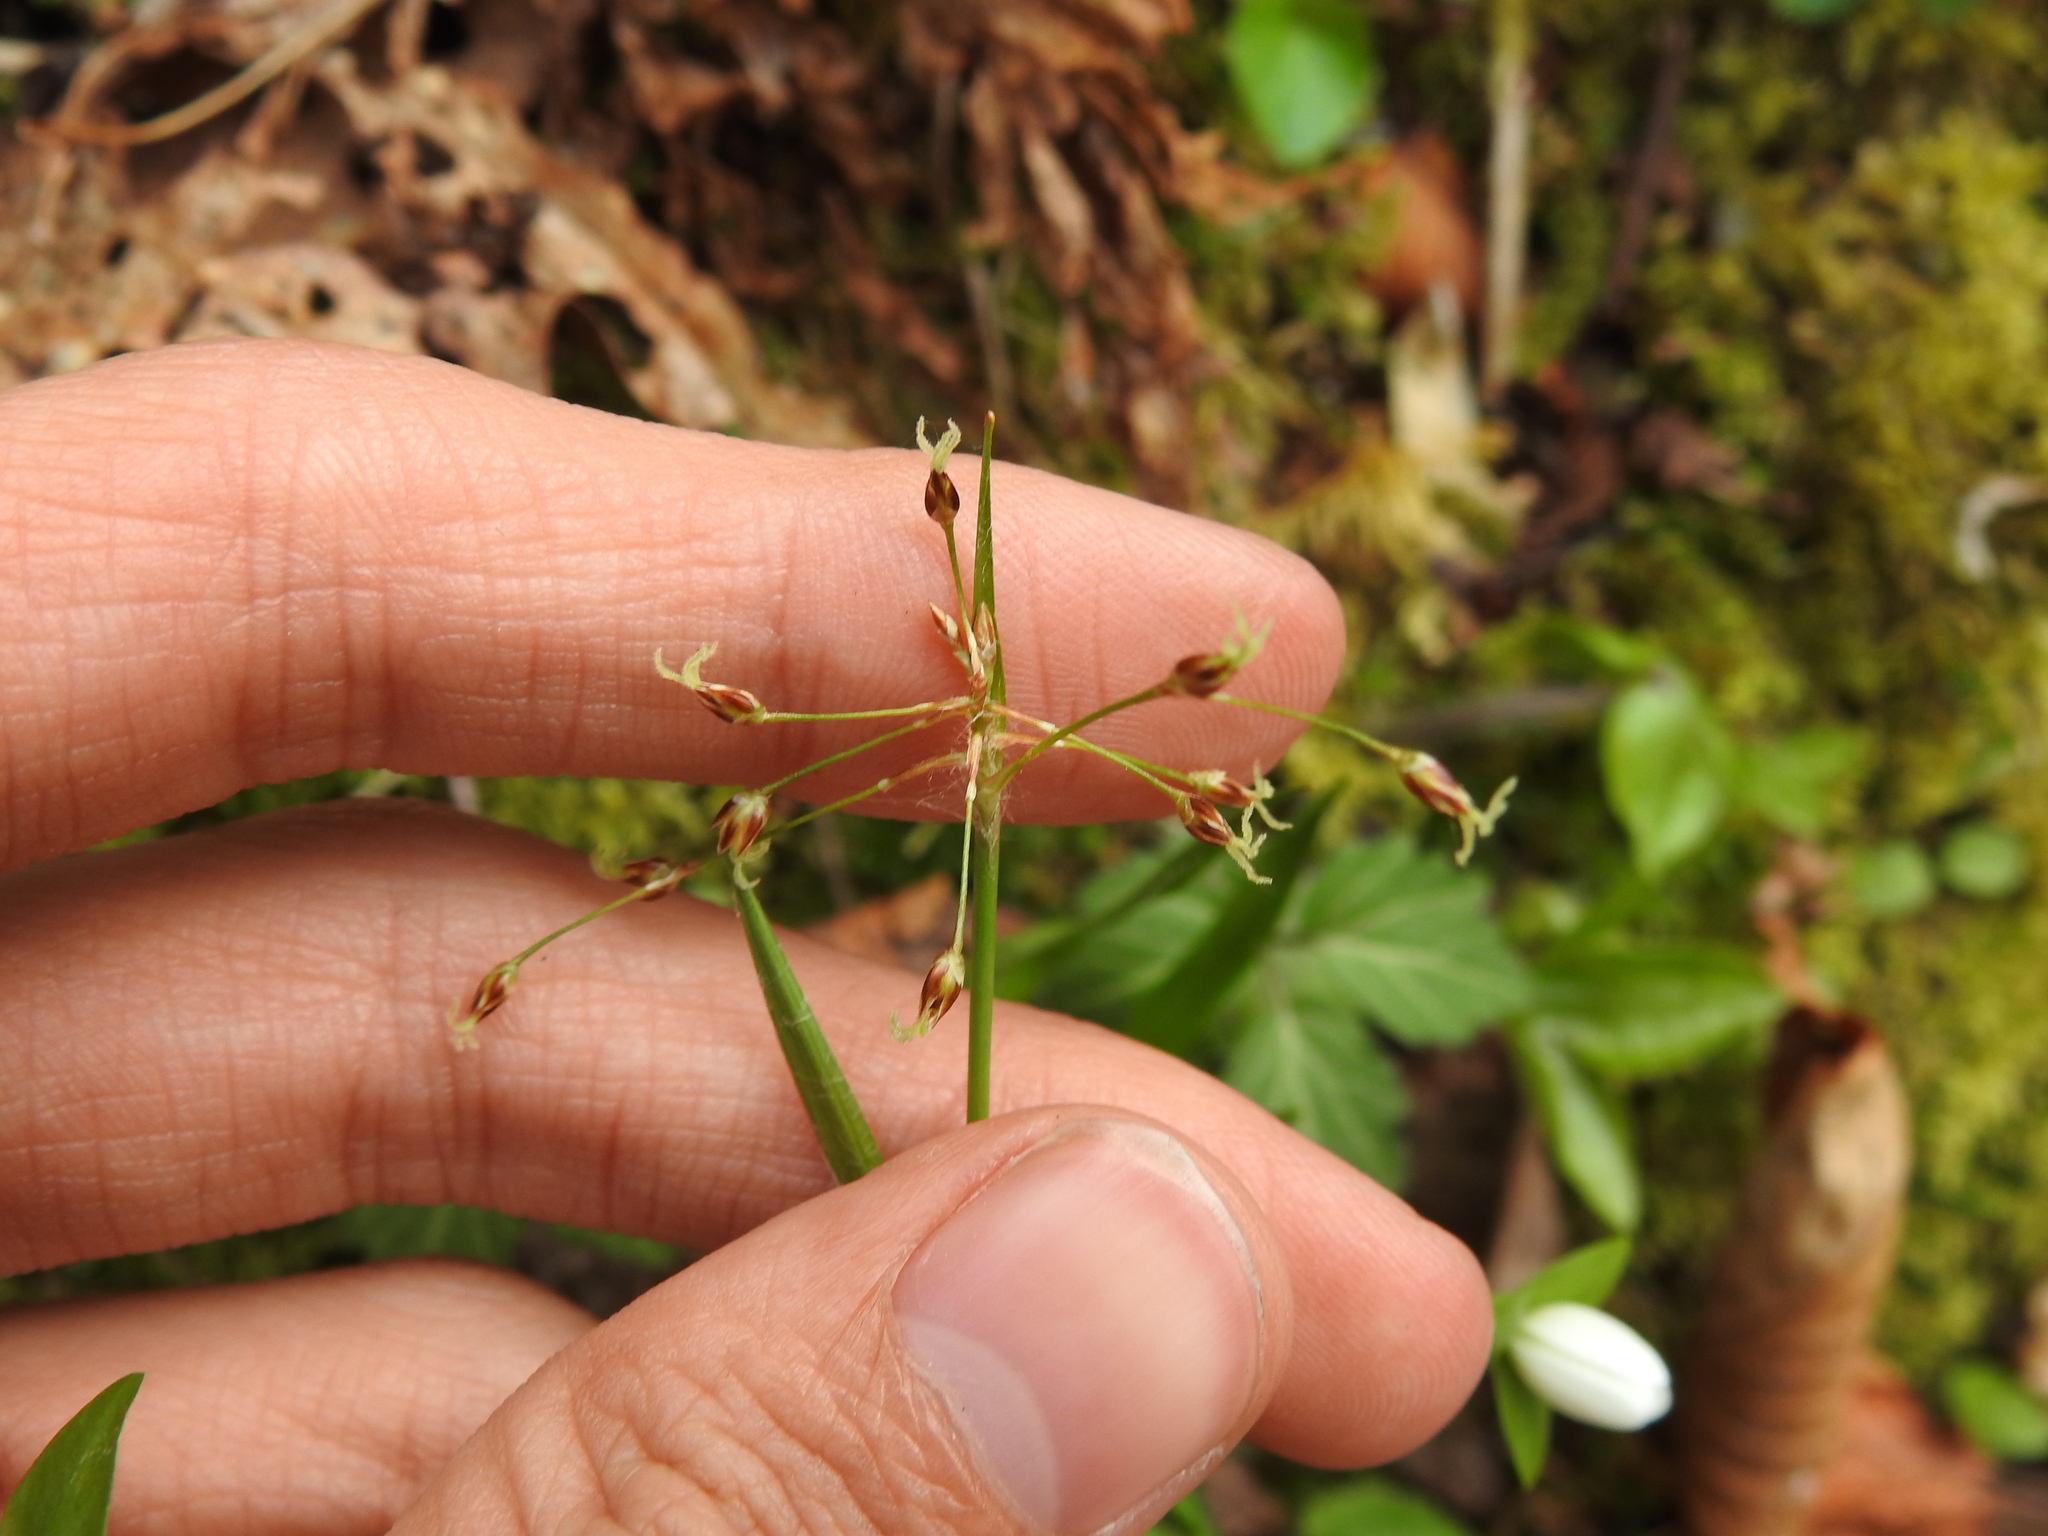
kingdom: Plantae
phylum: Tracheophyta
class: Liliopsida
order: Poales
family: Juncaceae
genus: Luzula
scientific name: Luzula acuminata
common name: Hairy woodrush
